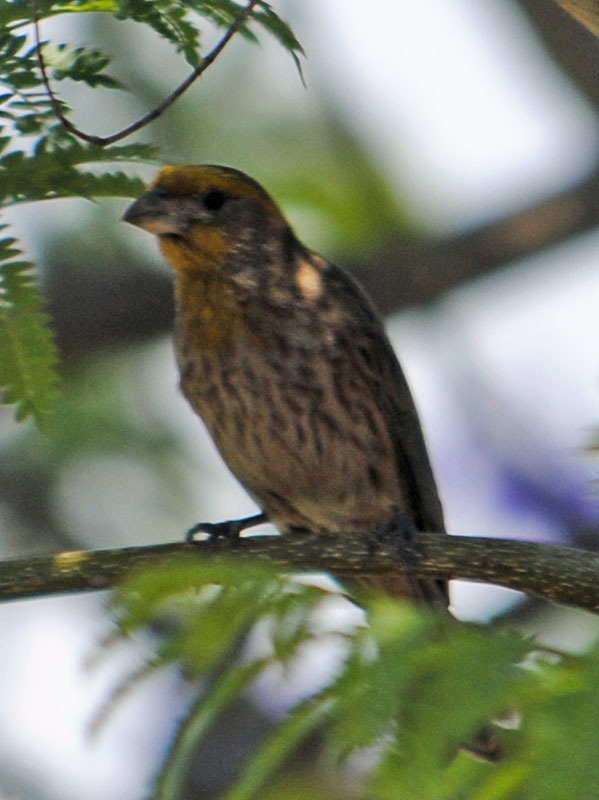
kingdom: Animalia
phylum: Chordata
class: Aves
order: Passeriformes
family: Fringillidae
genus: Haemorhous
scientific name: Haemorhous mexicanus
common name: House finch
